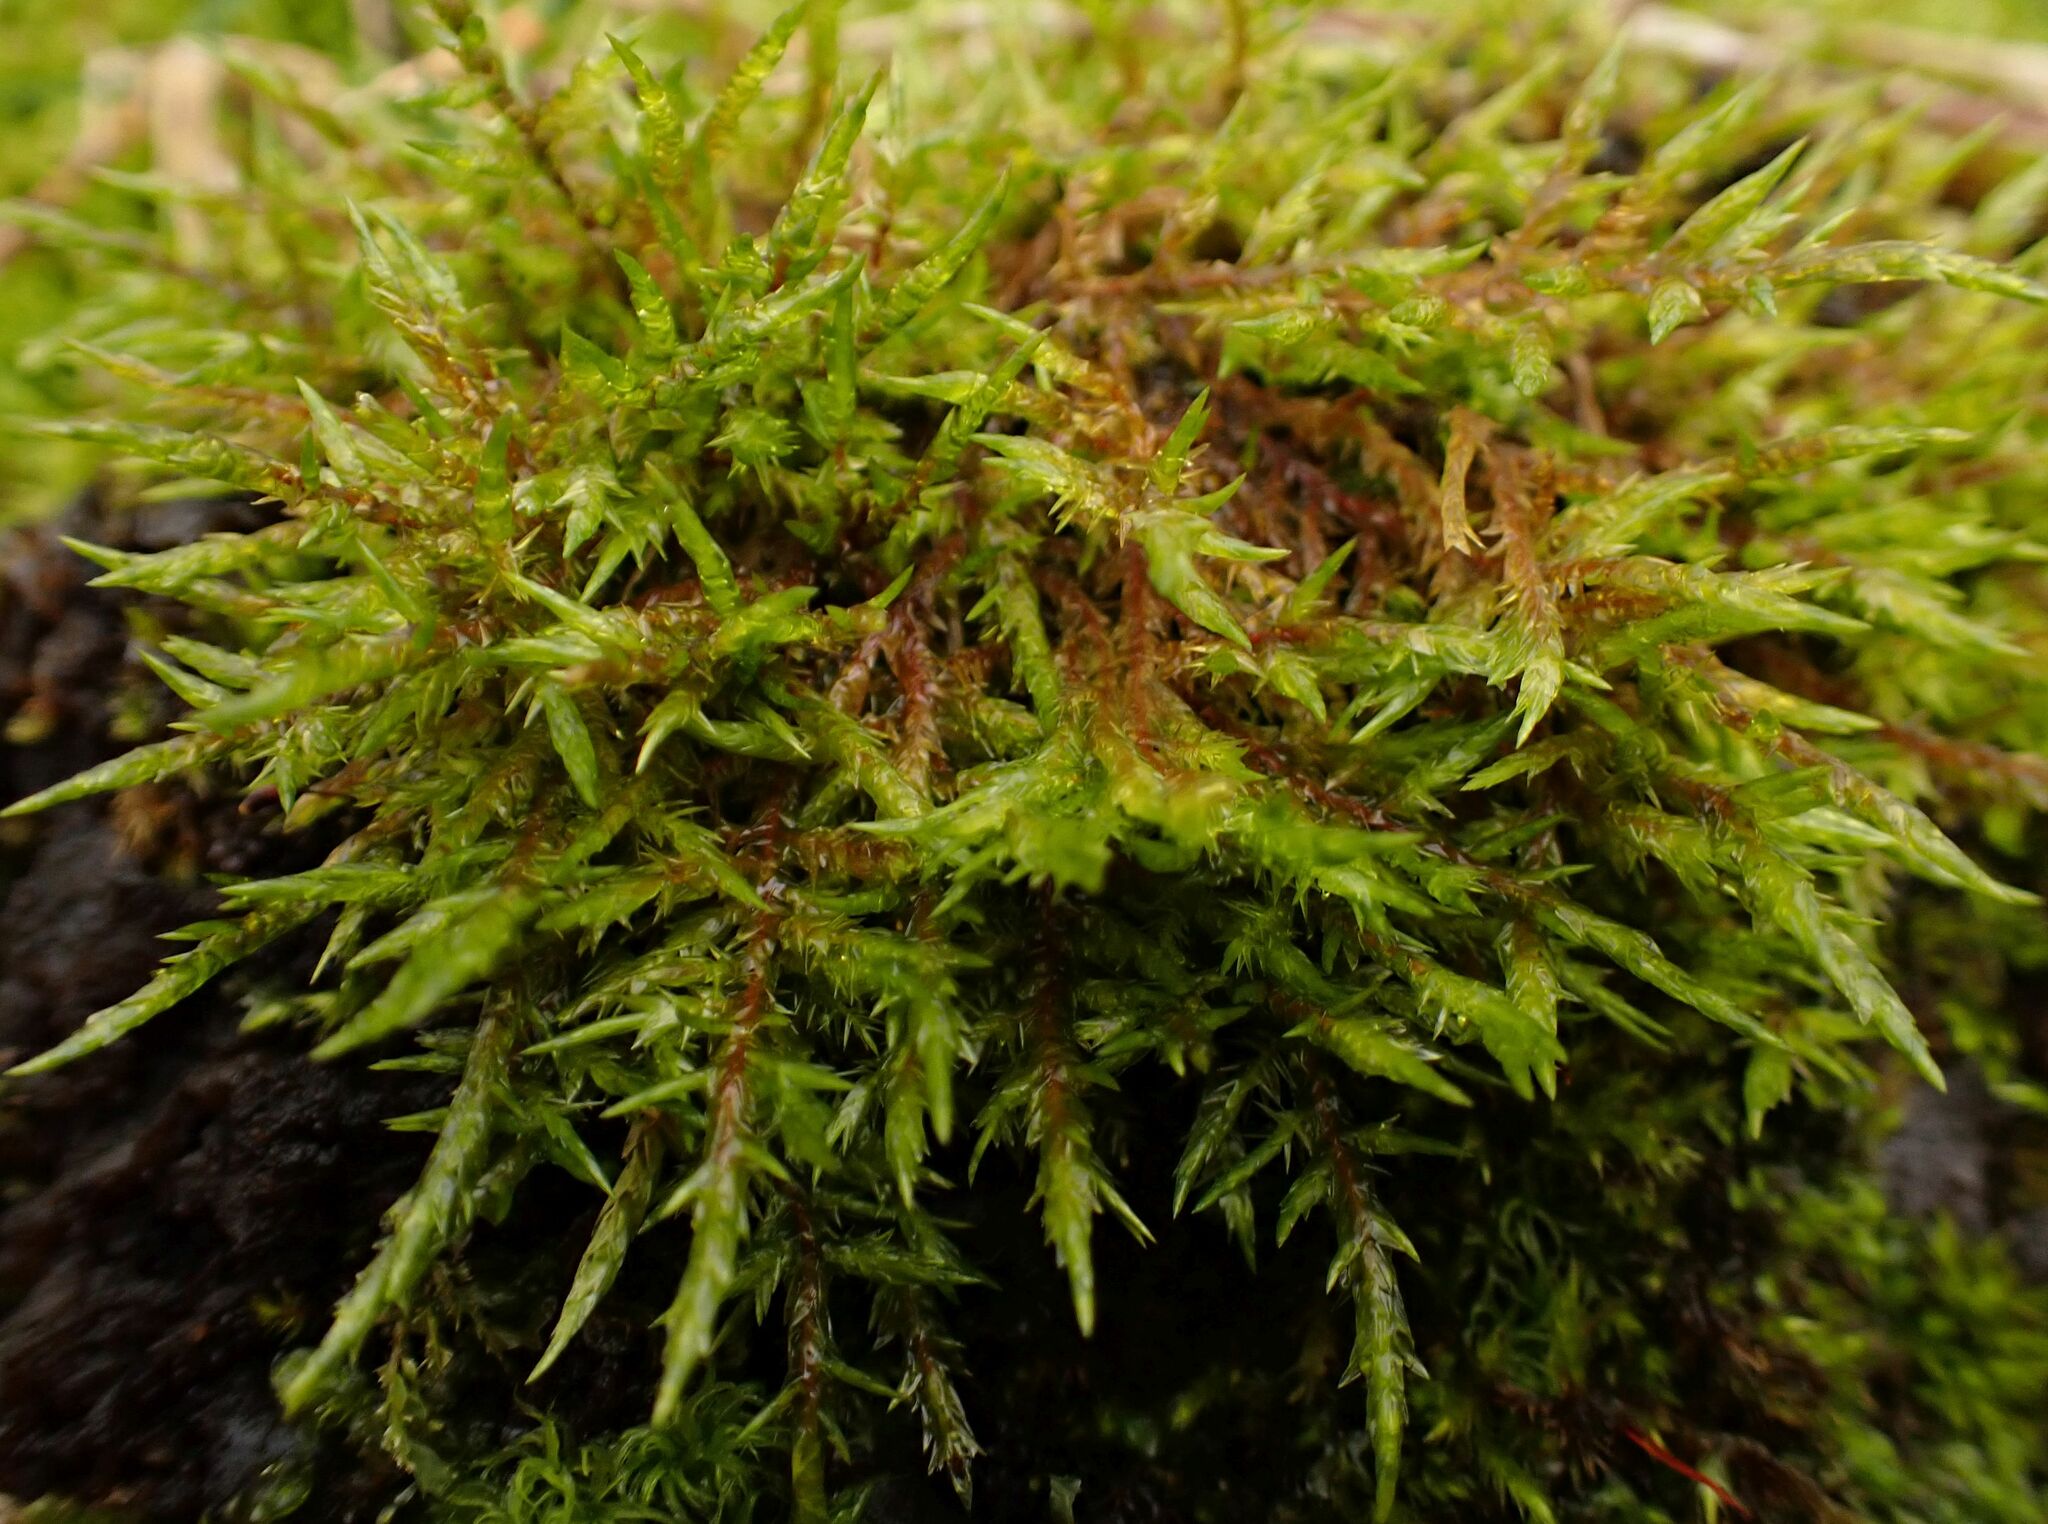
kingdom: Plantae
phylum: Bryophyta
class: Bryopsida
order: Hypnales
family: Pylaisiaceae
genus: Calliergonella
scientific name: Calliergonella cuspidata
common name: Common large wetland moss
